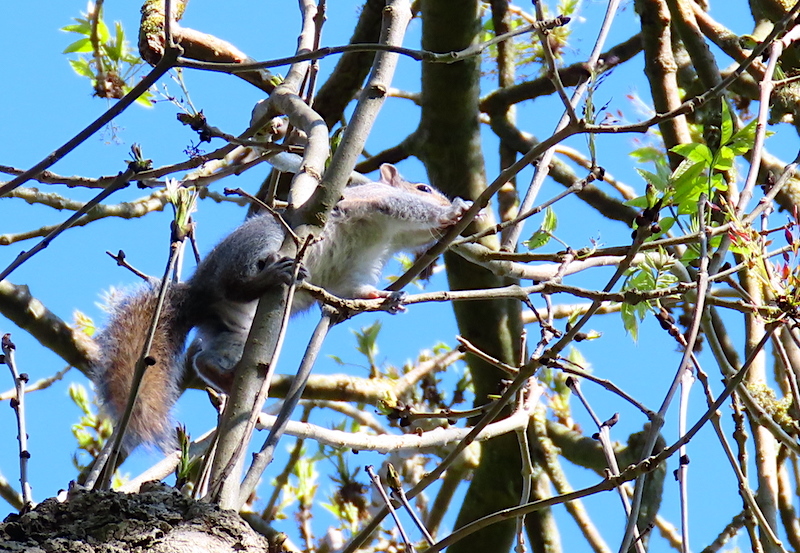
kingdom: Animalia
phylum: Chordata
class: Mammalia
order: Rodentia
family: Sciuridae
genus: Sciurus
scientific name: Sciurus carolinensis
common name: Eastern gray squirrel
